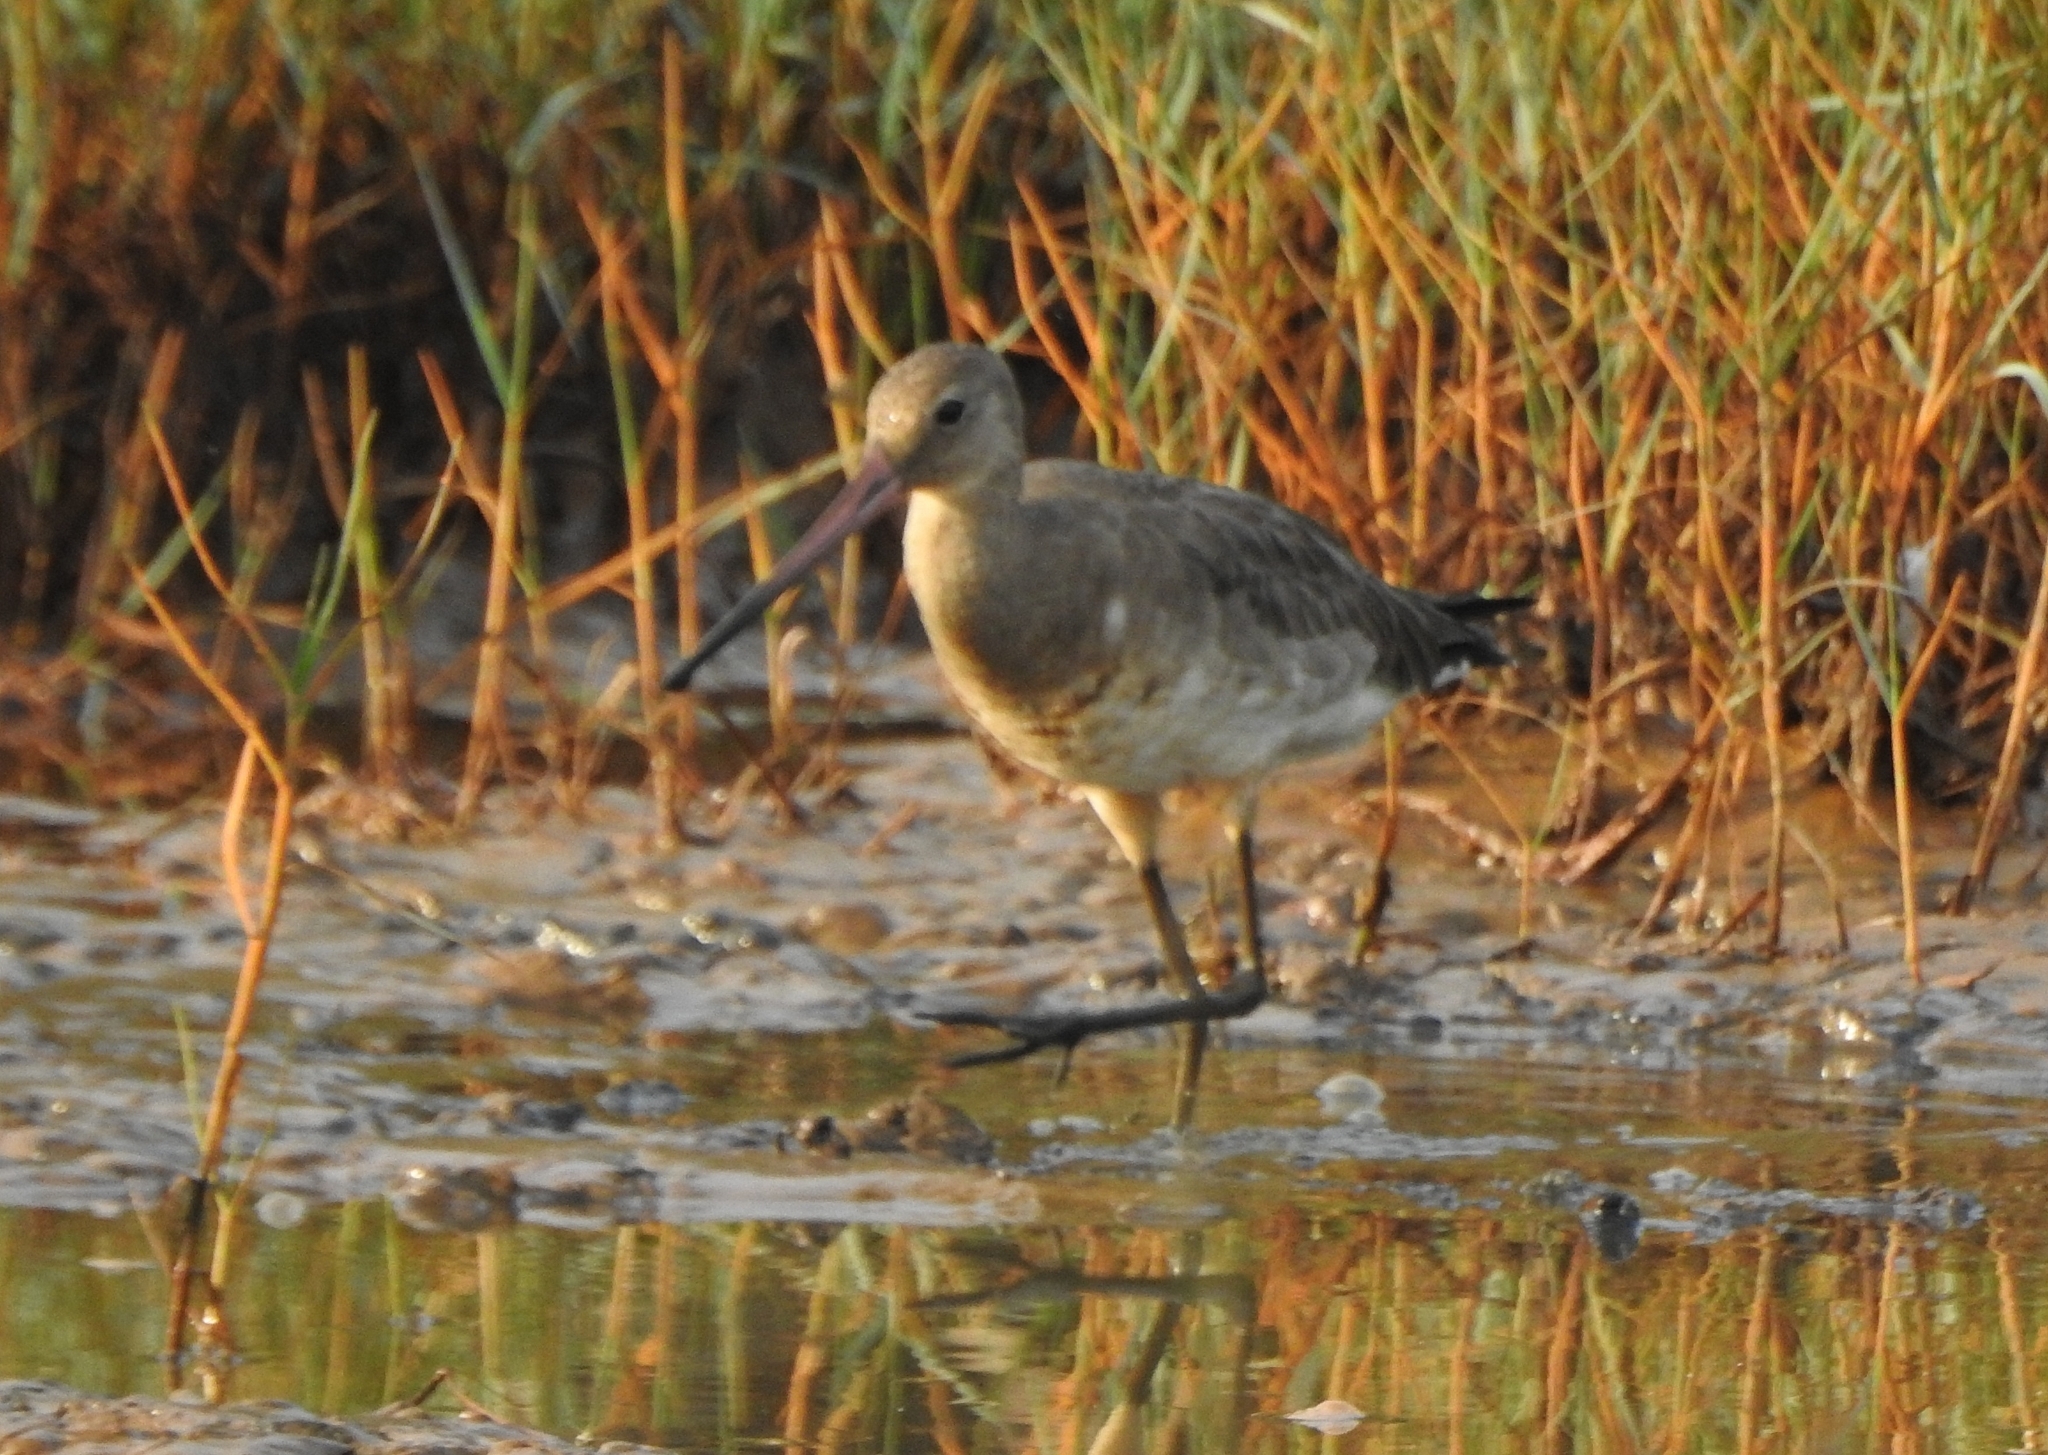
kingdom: Animalia
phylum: Chordata
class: Aves
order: Charadriiformes
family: Scolopacidae
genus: Limosa
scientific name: Limosa limosa
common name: Black-tailed godwit
